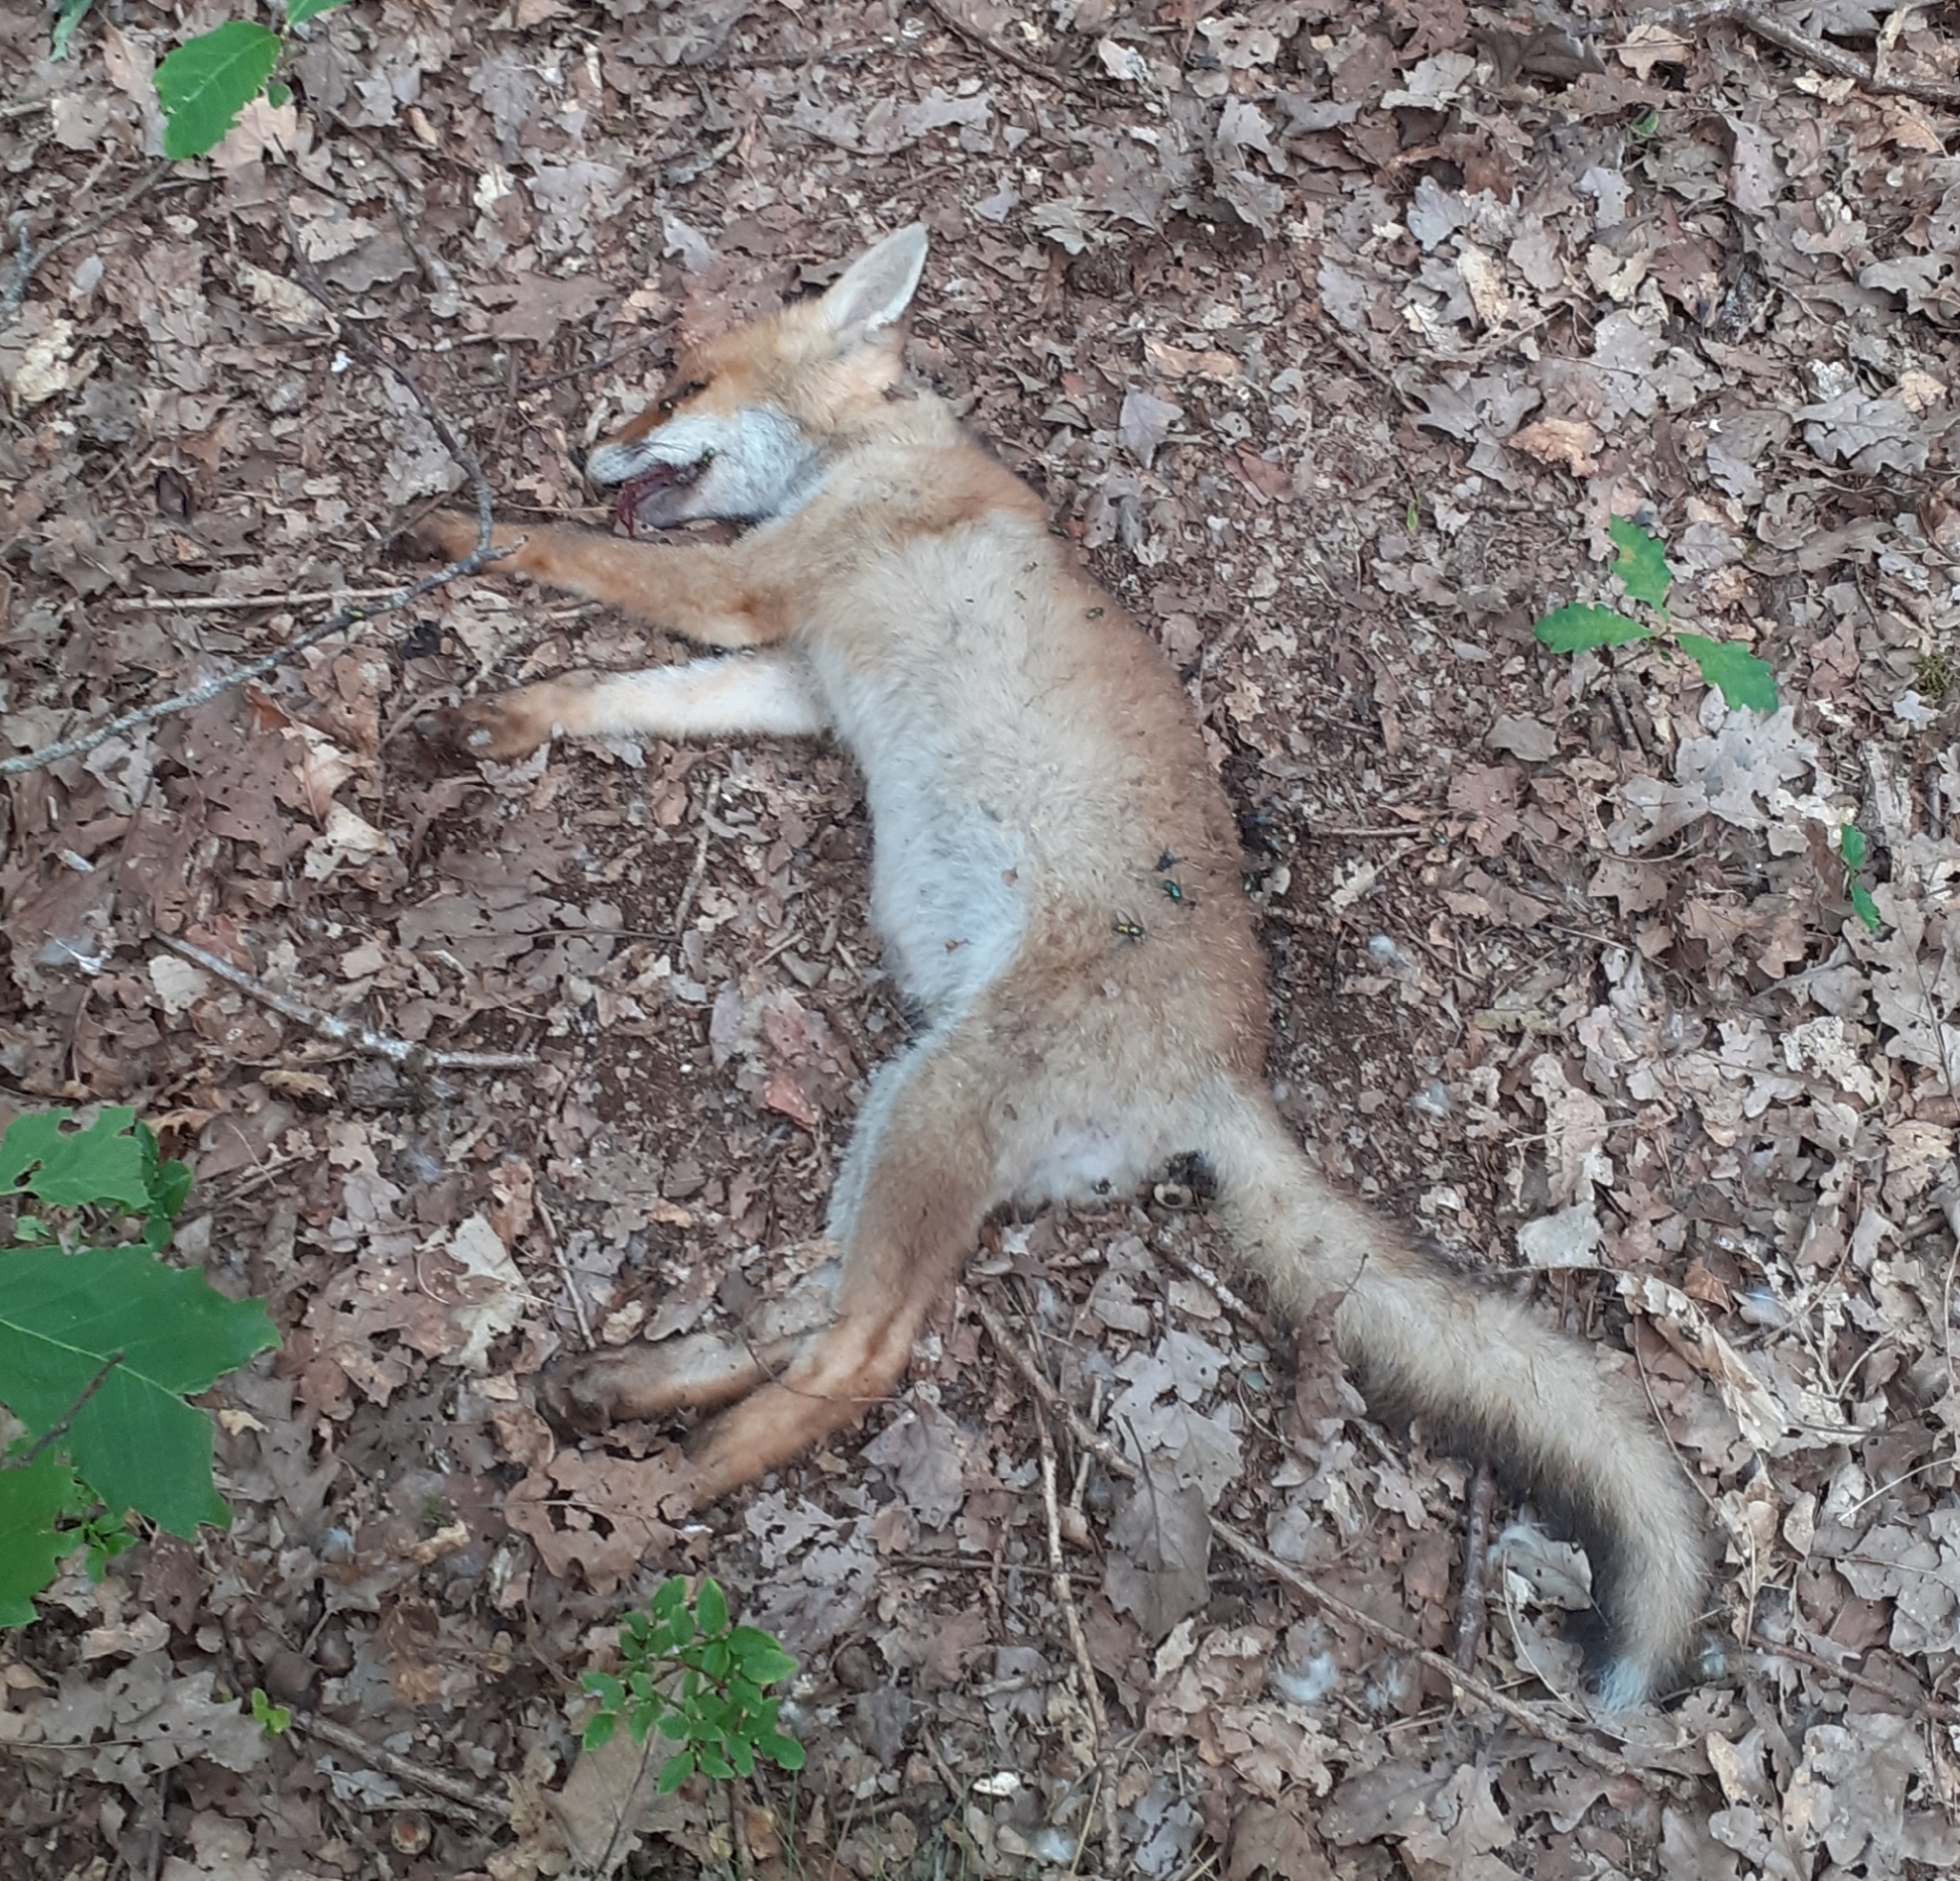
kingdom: Animalia
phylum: Chordata
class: Mammalia
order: Carnivora
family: Canidae
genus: Vulpes
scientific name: Vulpes vulpes
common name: Red fox
